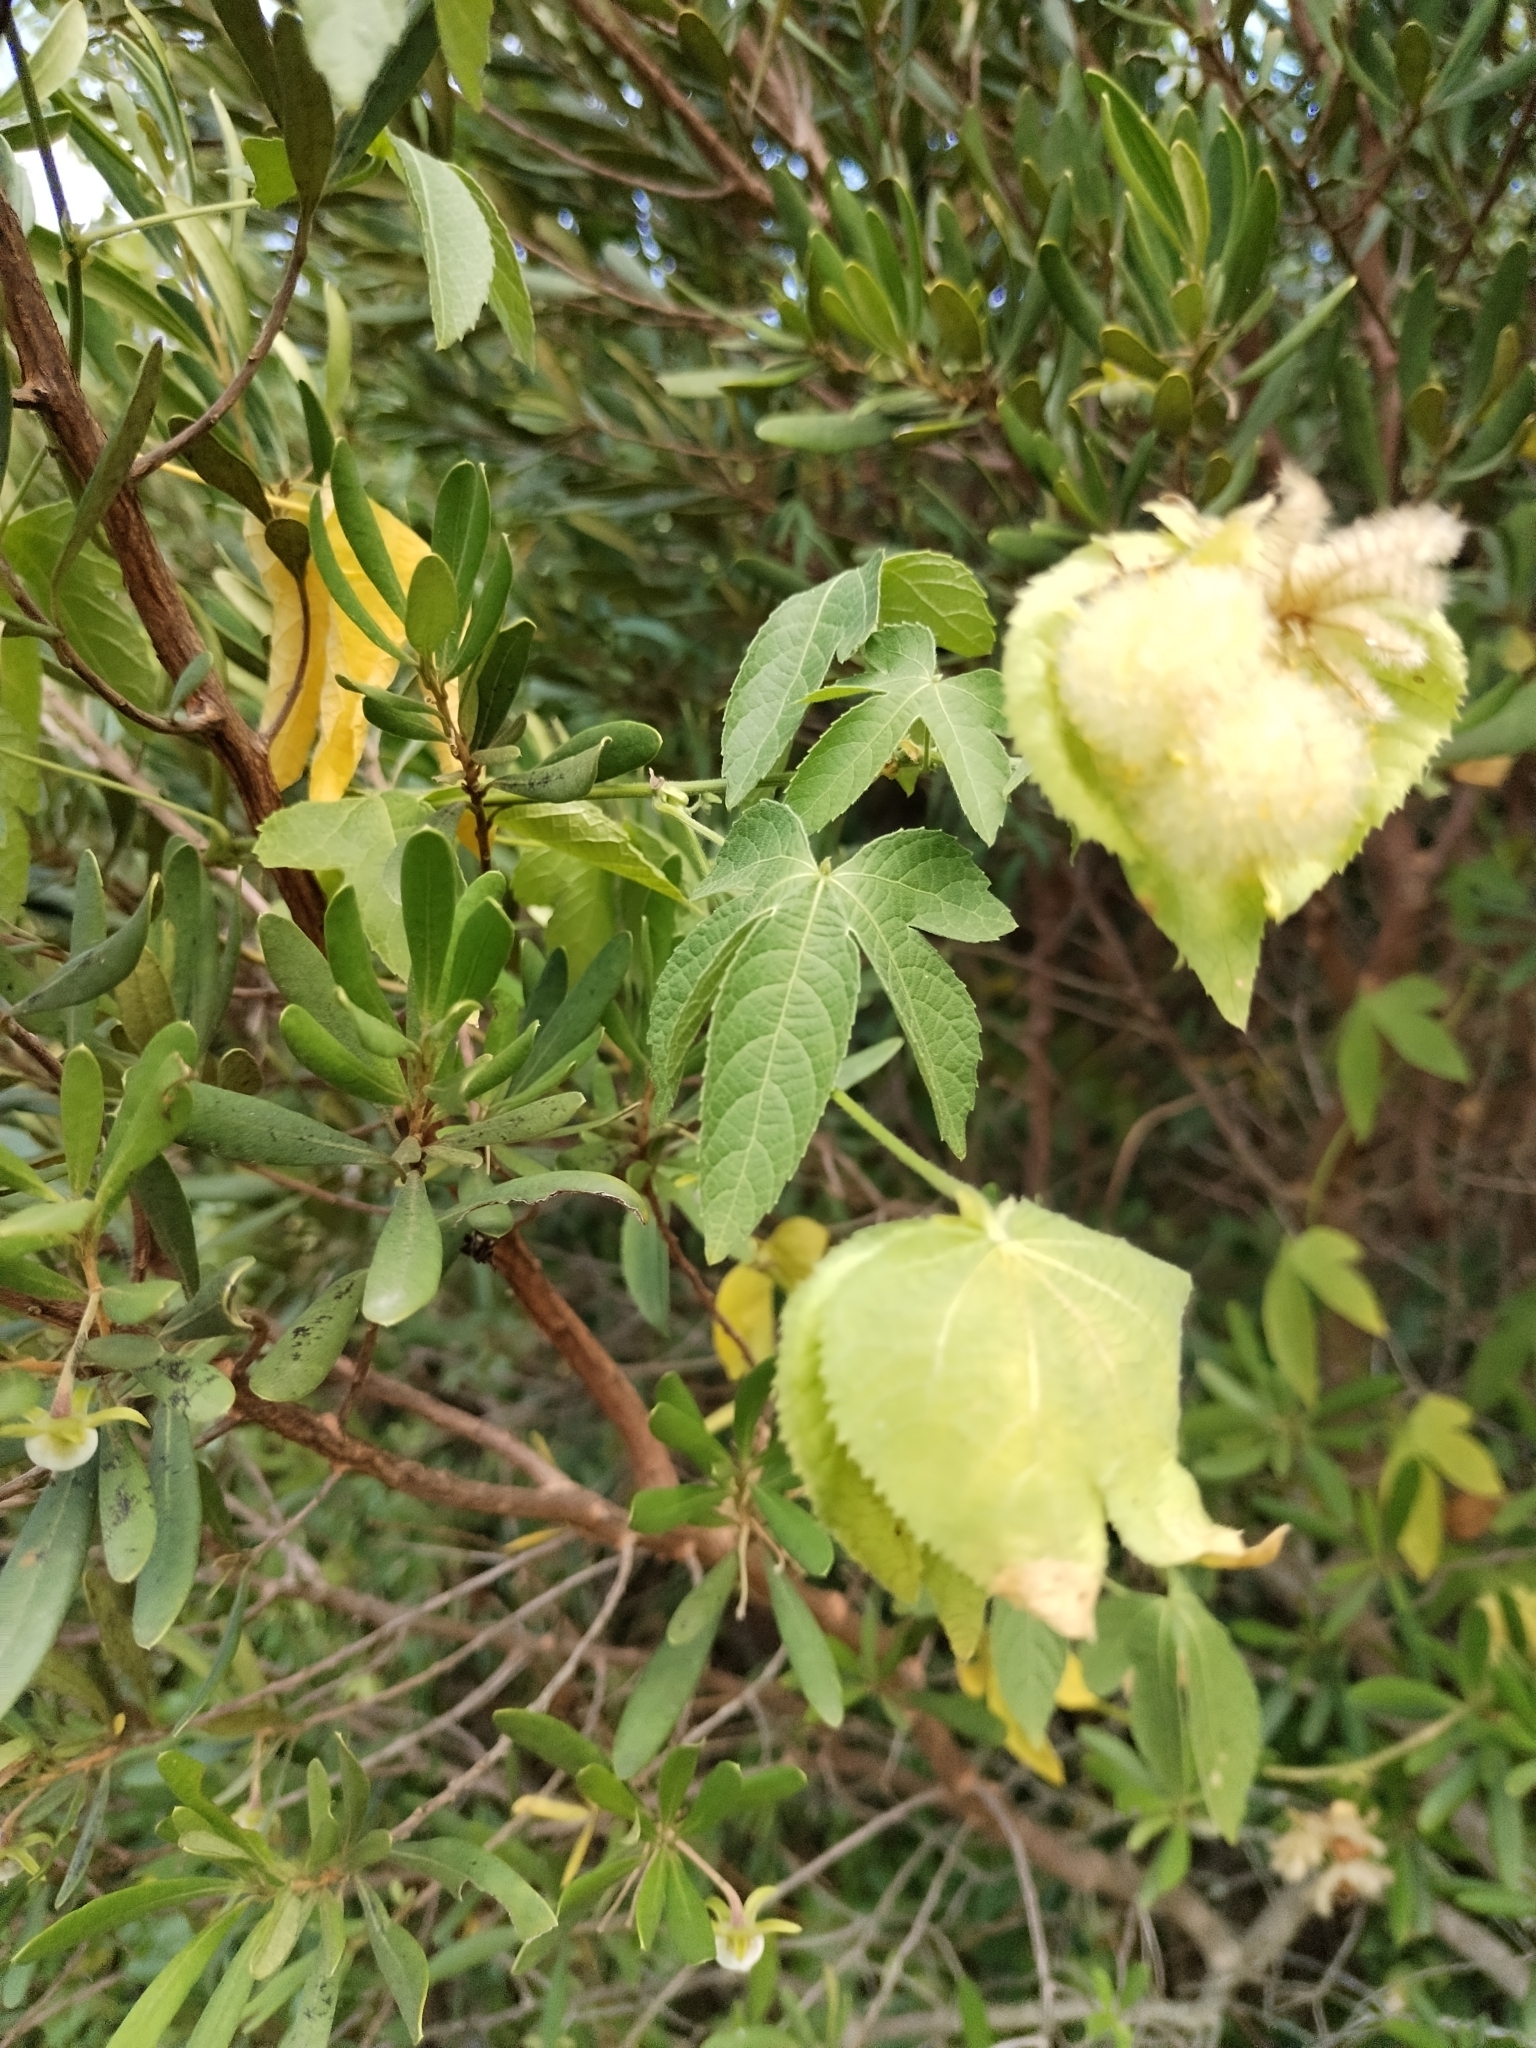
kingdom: Plantae
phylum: Tracheophyta
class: Magnoliopsida
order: Malpighiales
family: Euphorbiaceae
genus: Dalechampia
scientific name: Dalechampia capensis
